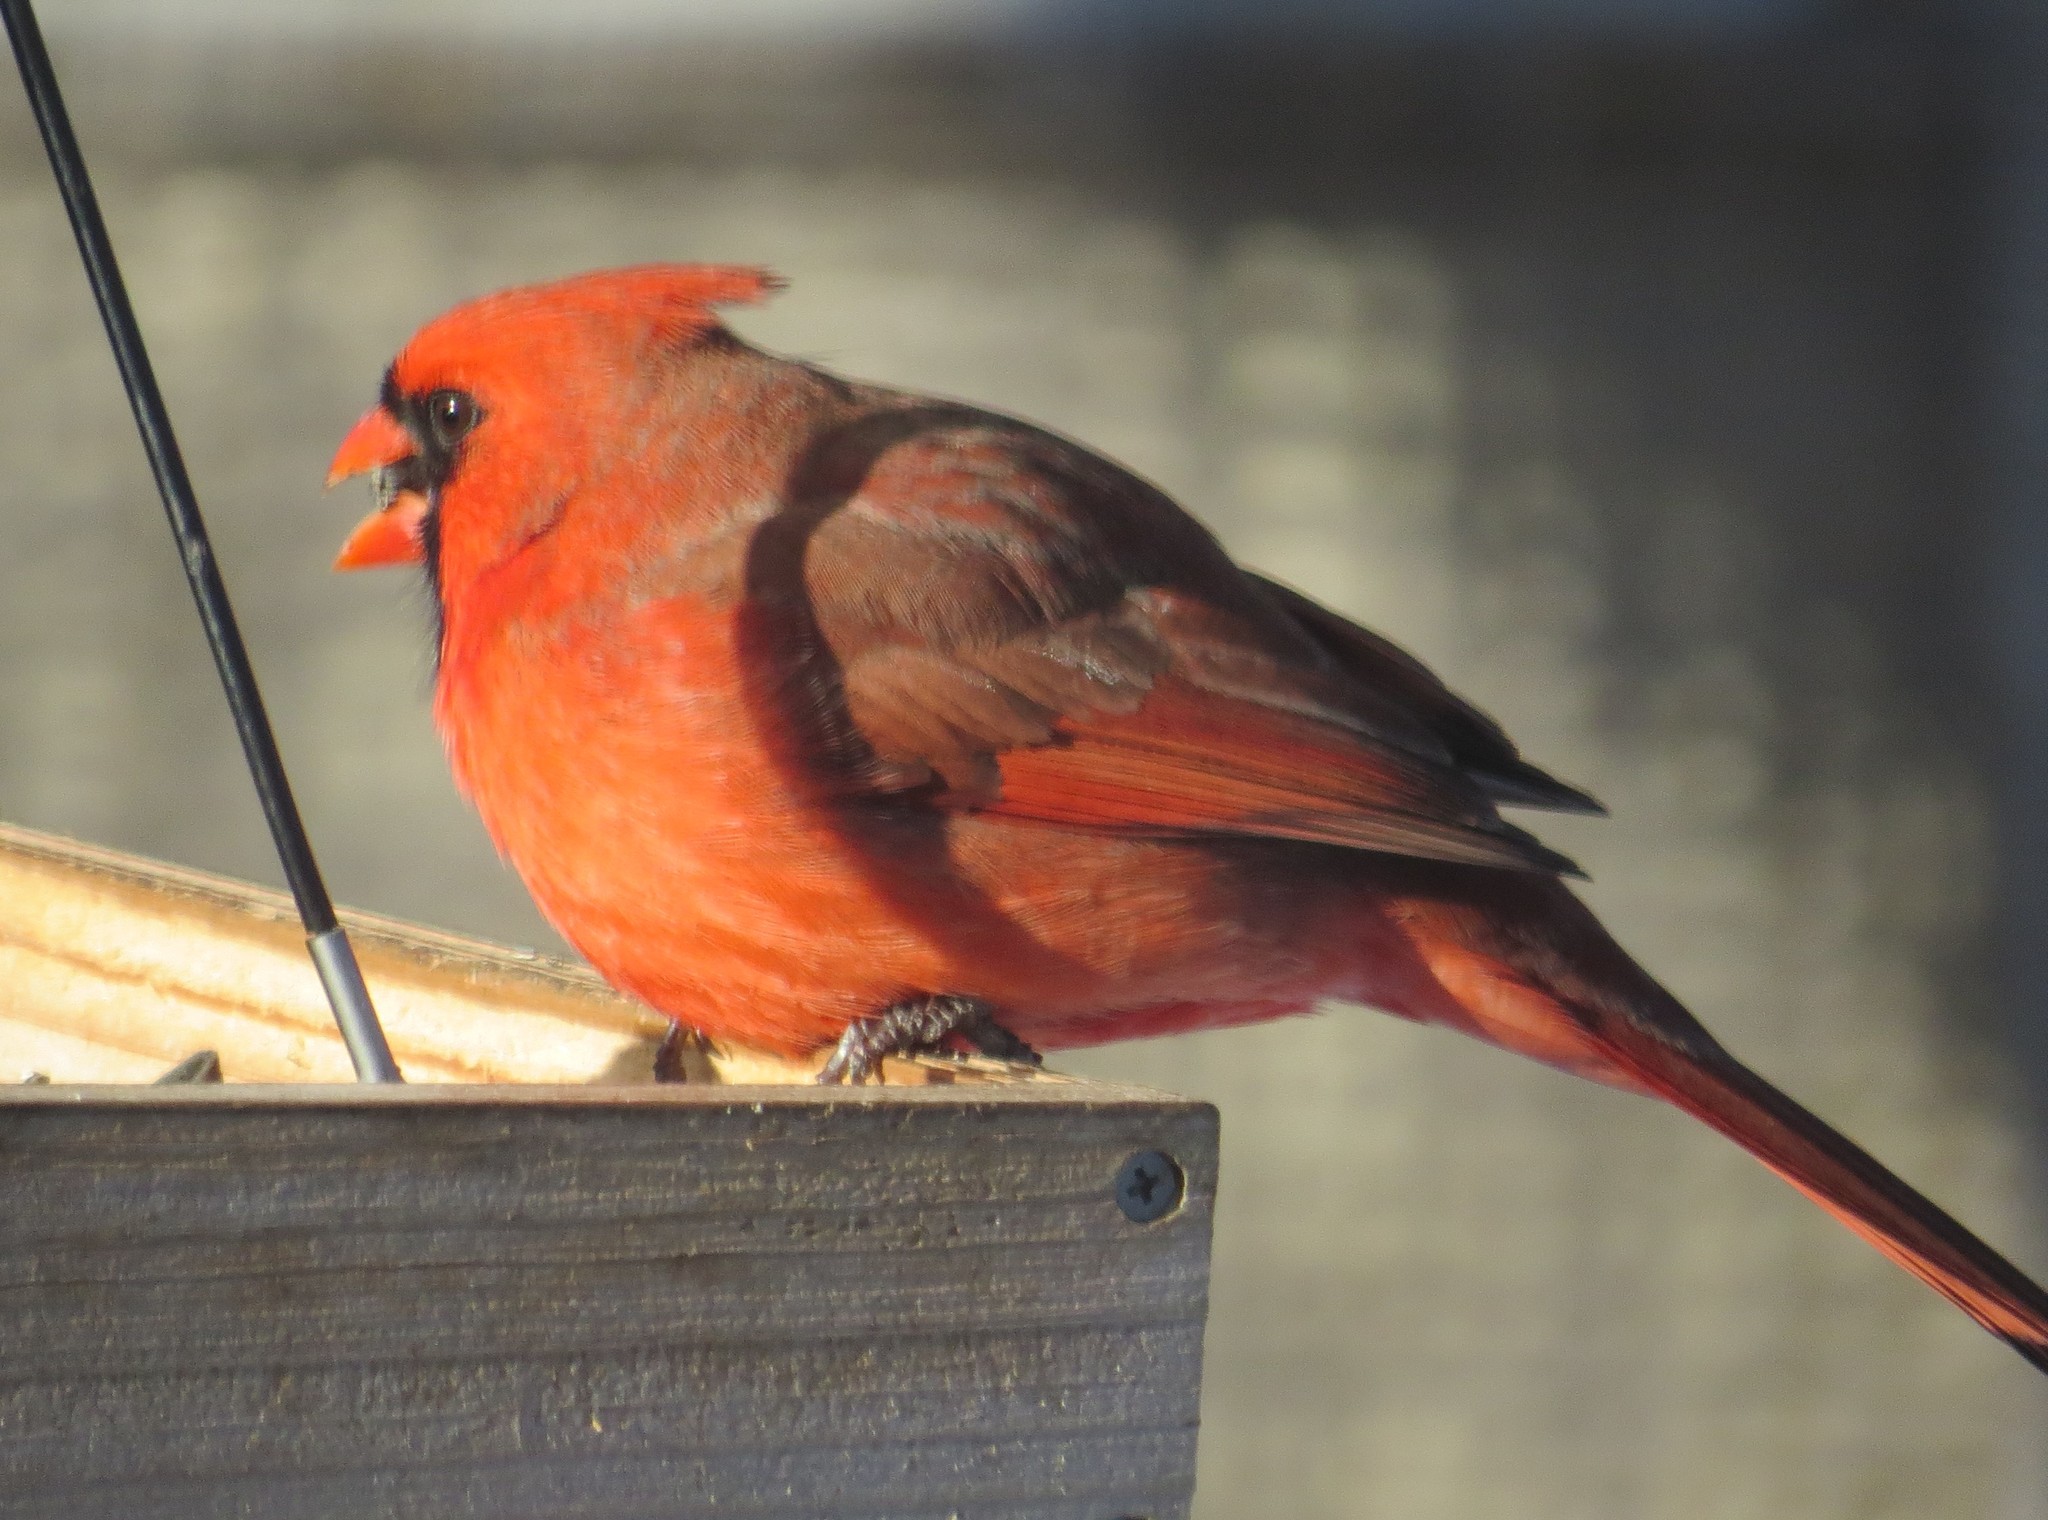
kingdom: Animalia
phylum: Chordata
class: Aves
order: Passeriformes
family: Cardinalidae
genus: Cardinalis
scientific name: Cardinalis cardinalis
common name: Northern cardinal
